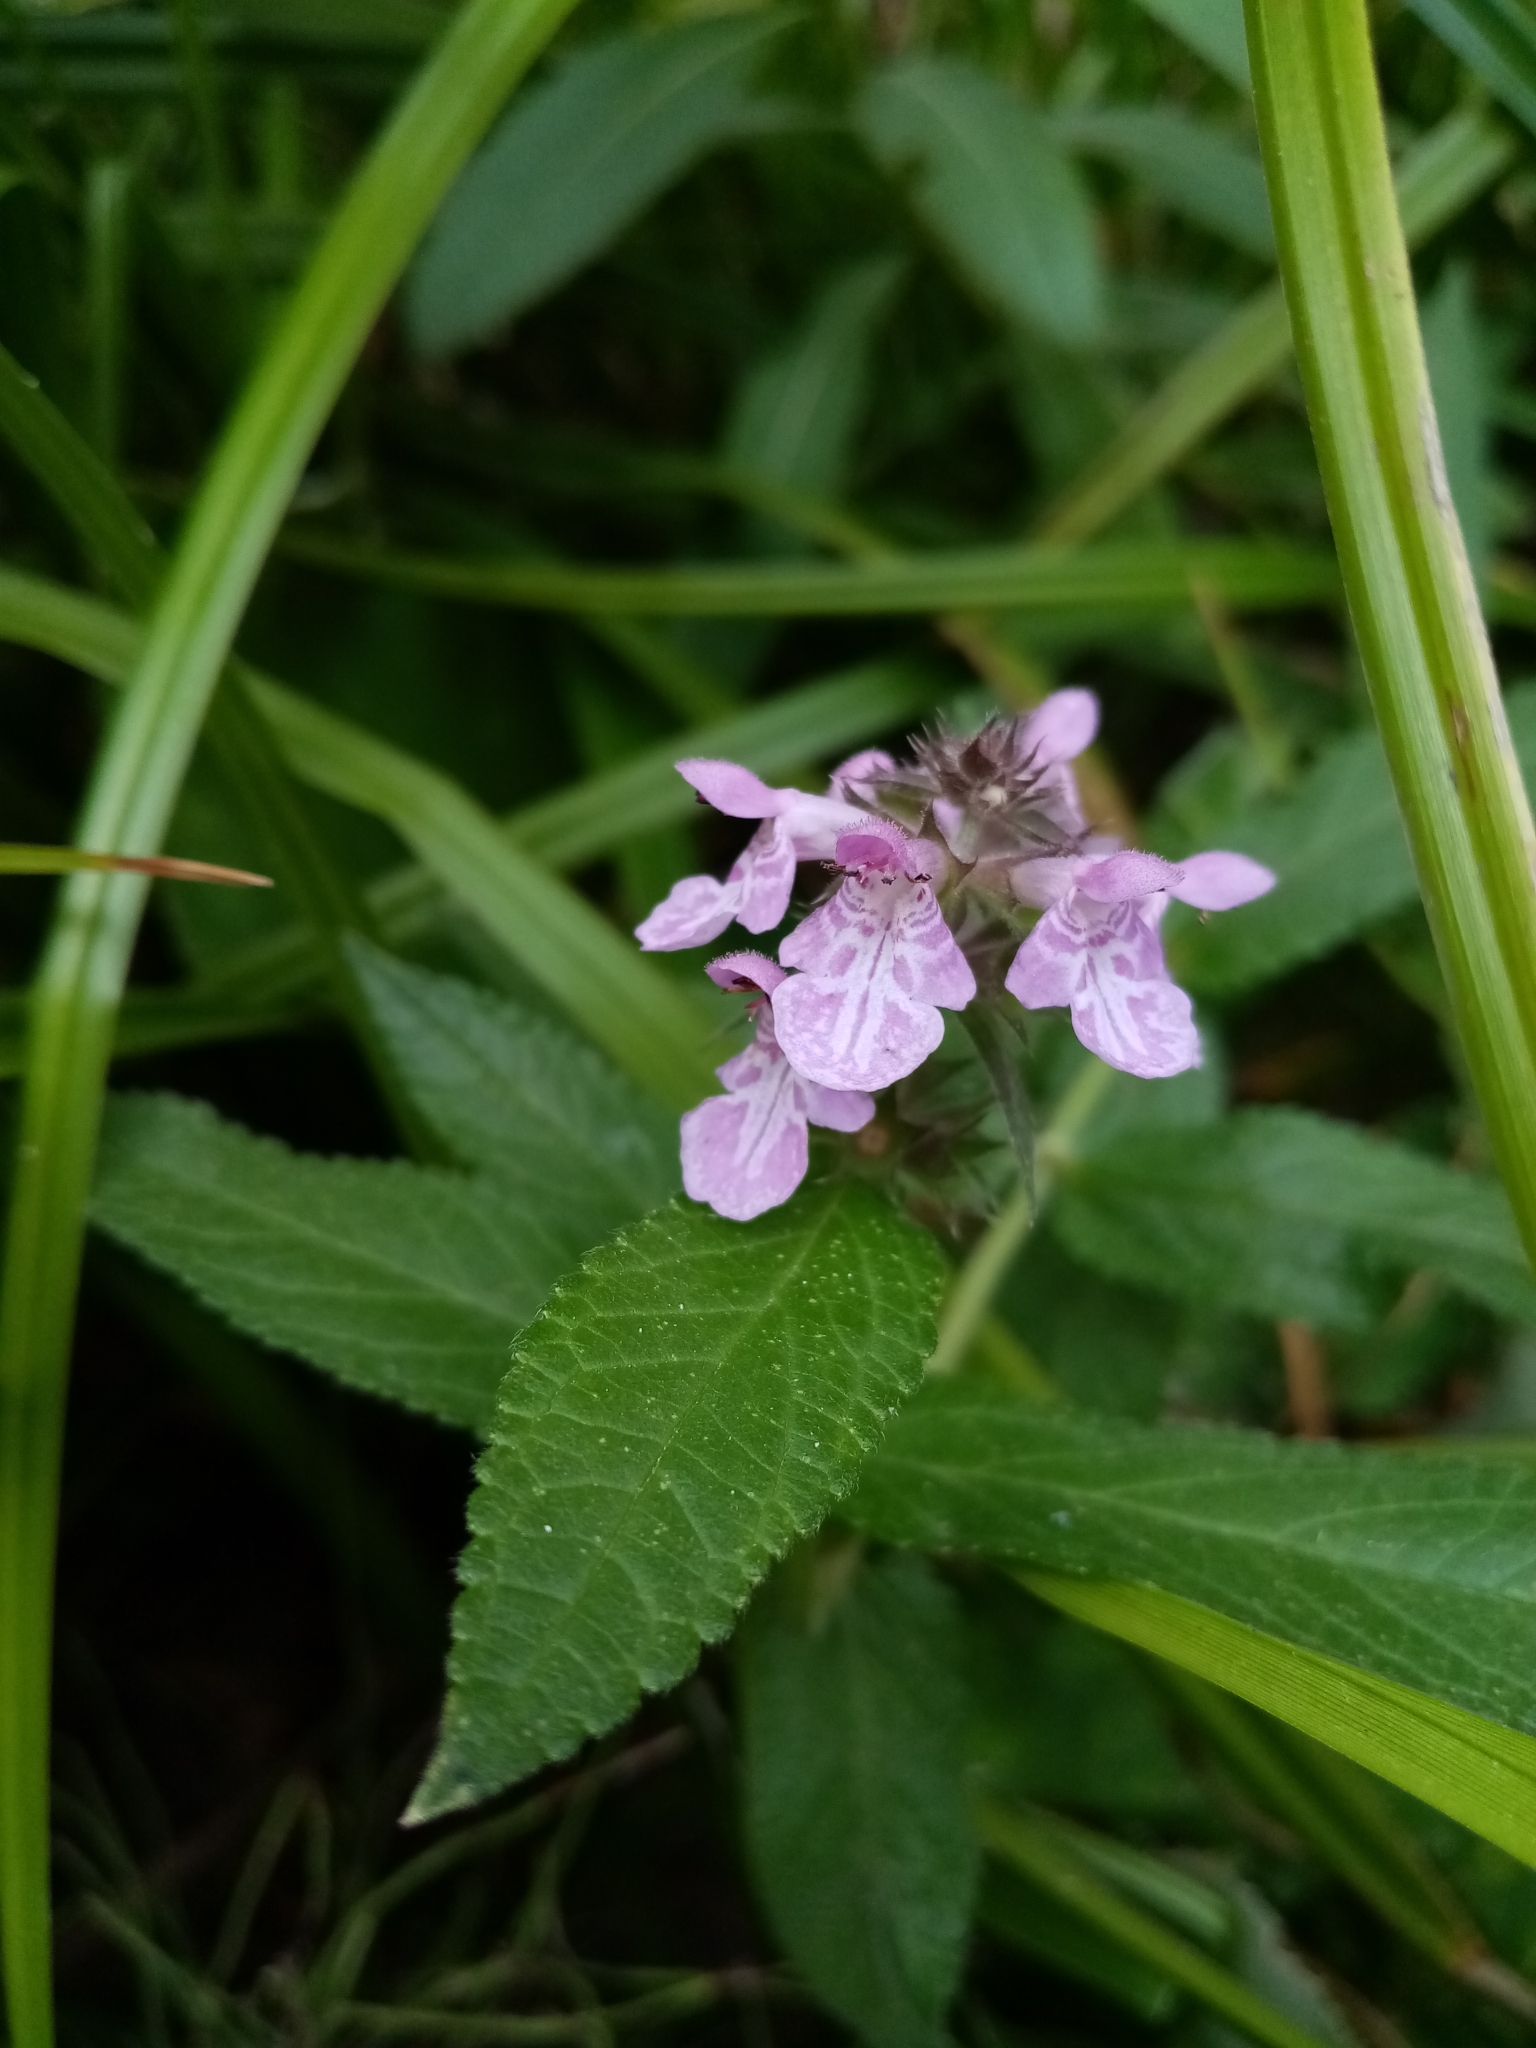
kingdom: Plantae
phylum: Tracheophyta
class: Magnoliopsida
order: Lamiales
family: Lamiaceae
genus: Stachys
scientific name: Stachys palustris
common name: Marsh woundwort
